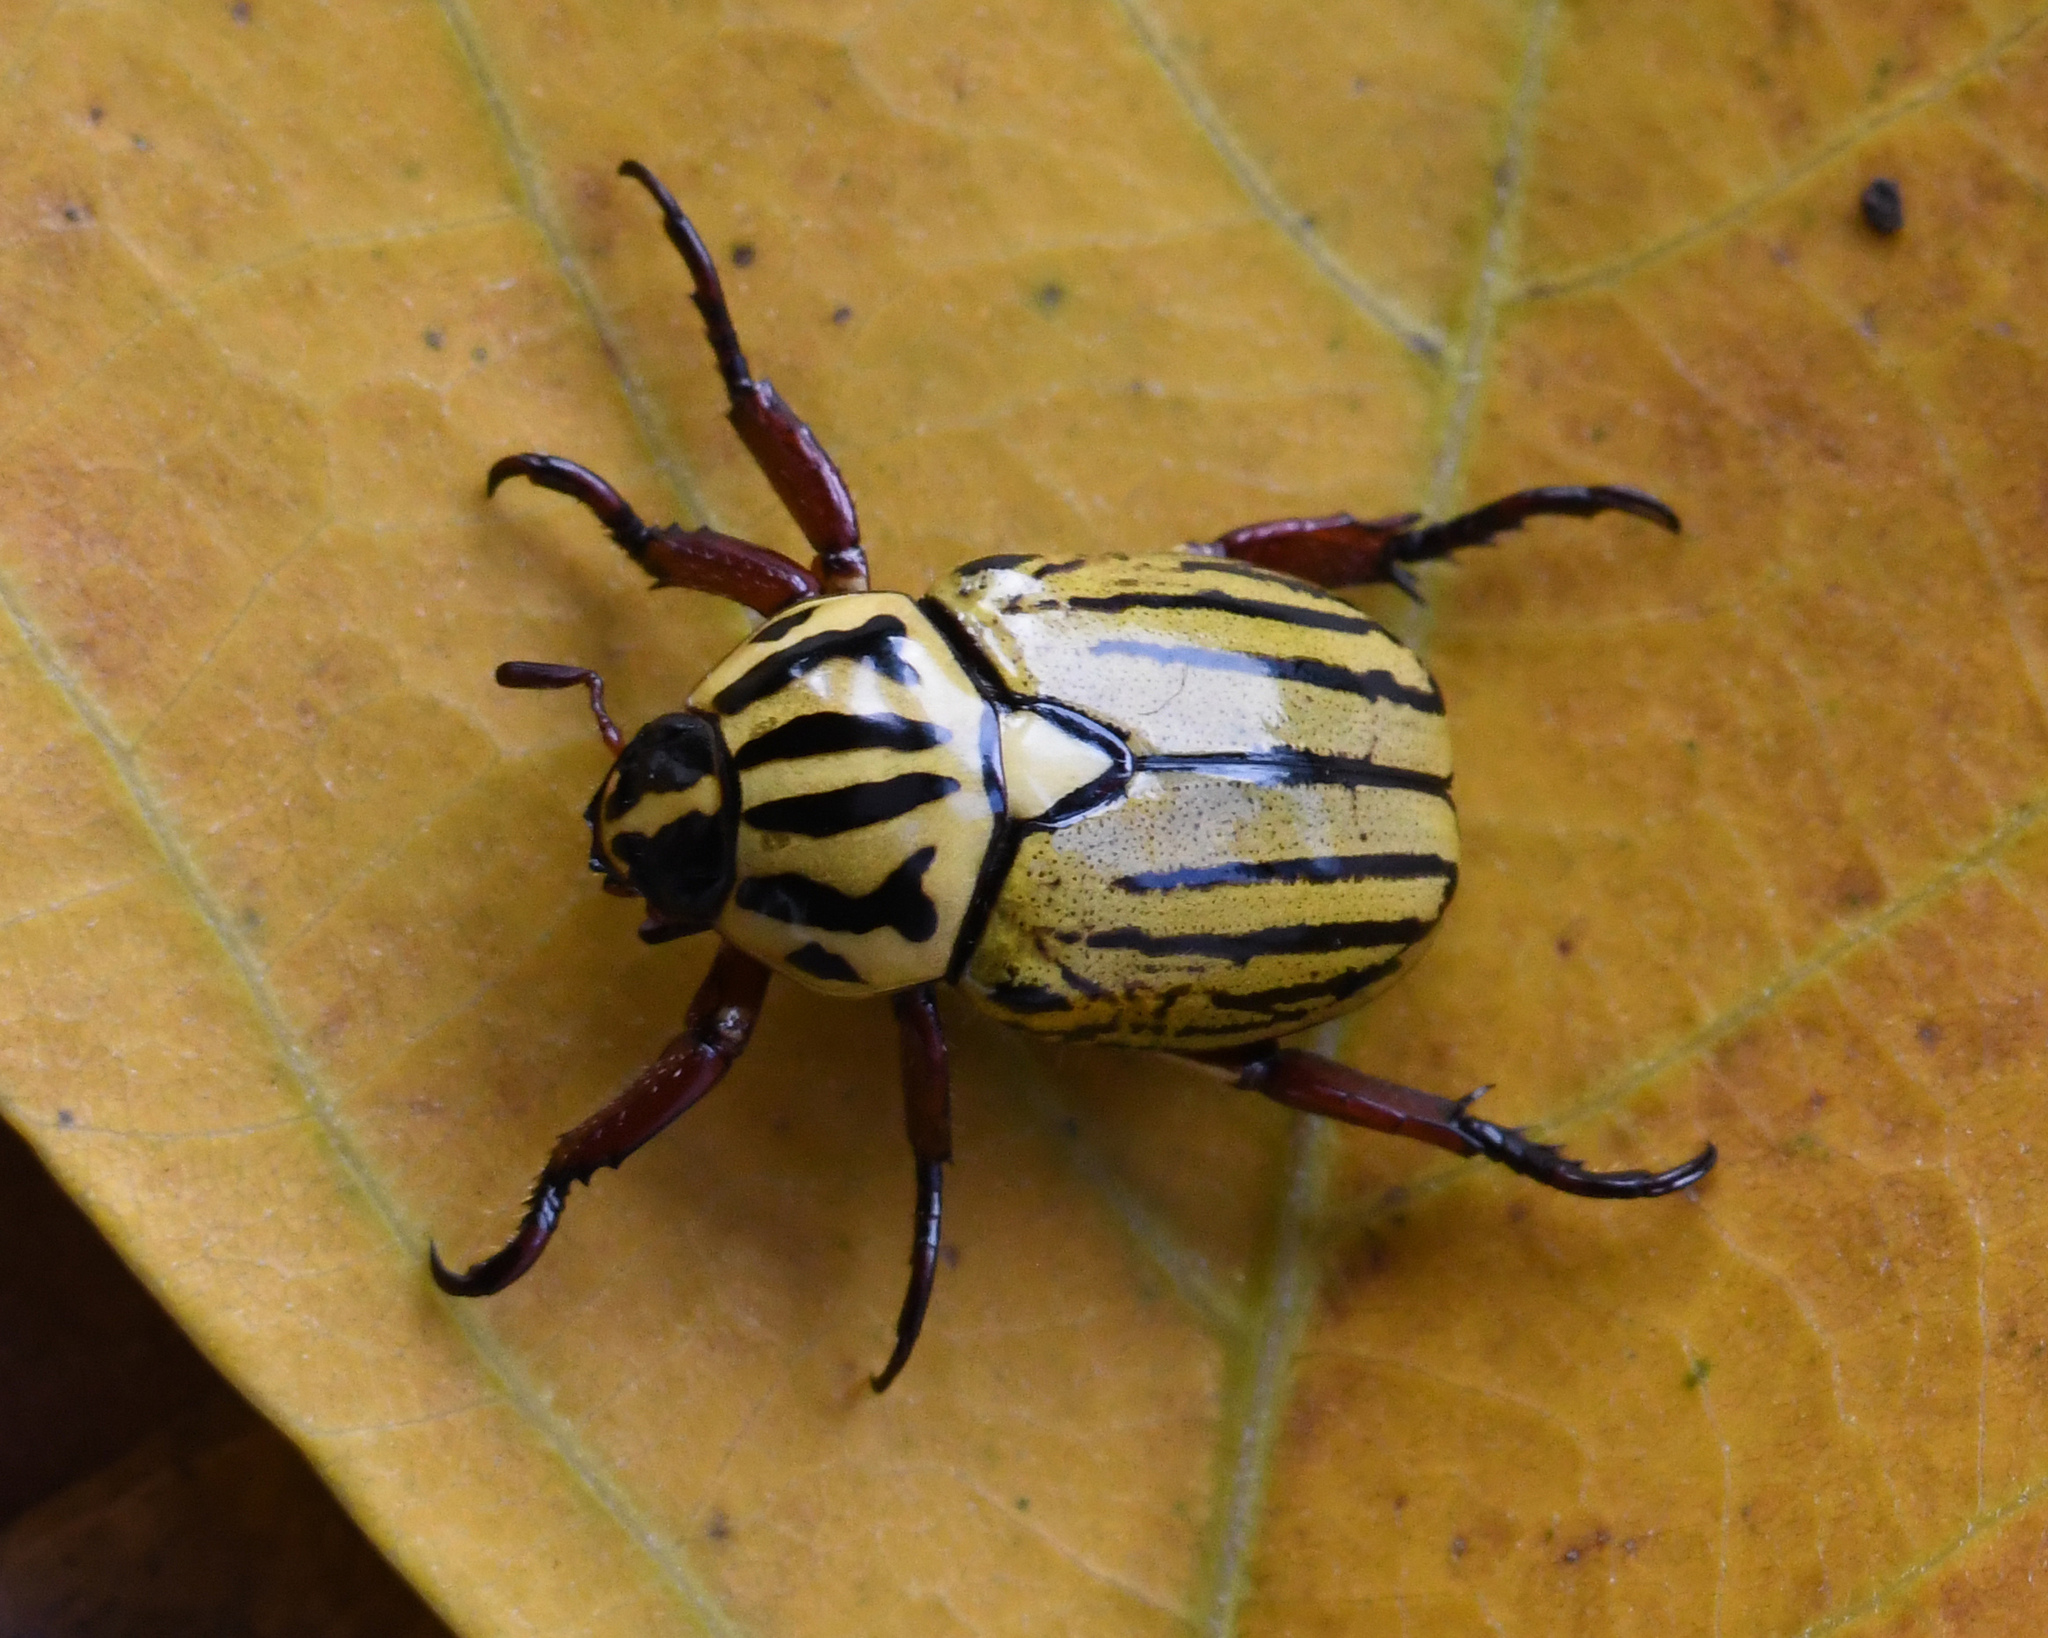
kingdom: Animalia
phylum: Arthropoda
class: Insecta
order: Coleoptera
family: Scarabaeidae
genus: Rutela
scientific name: Rutela dorcyi
